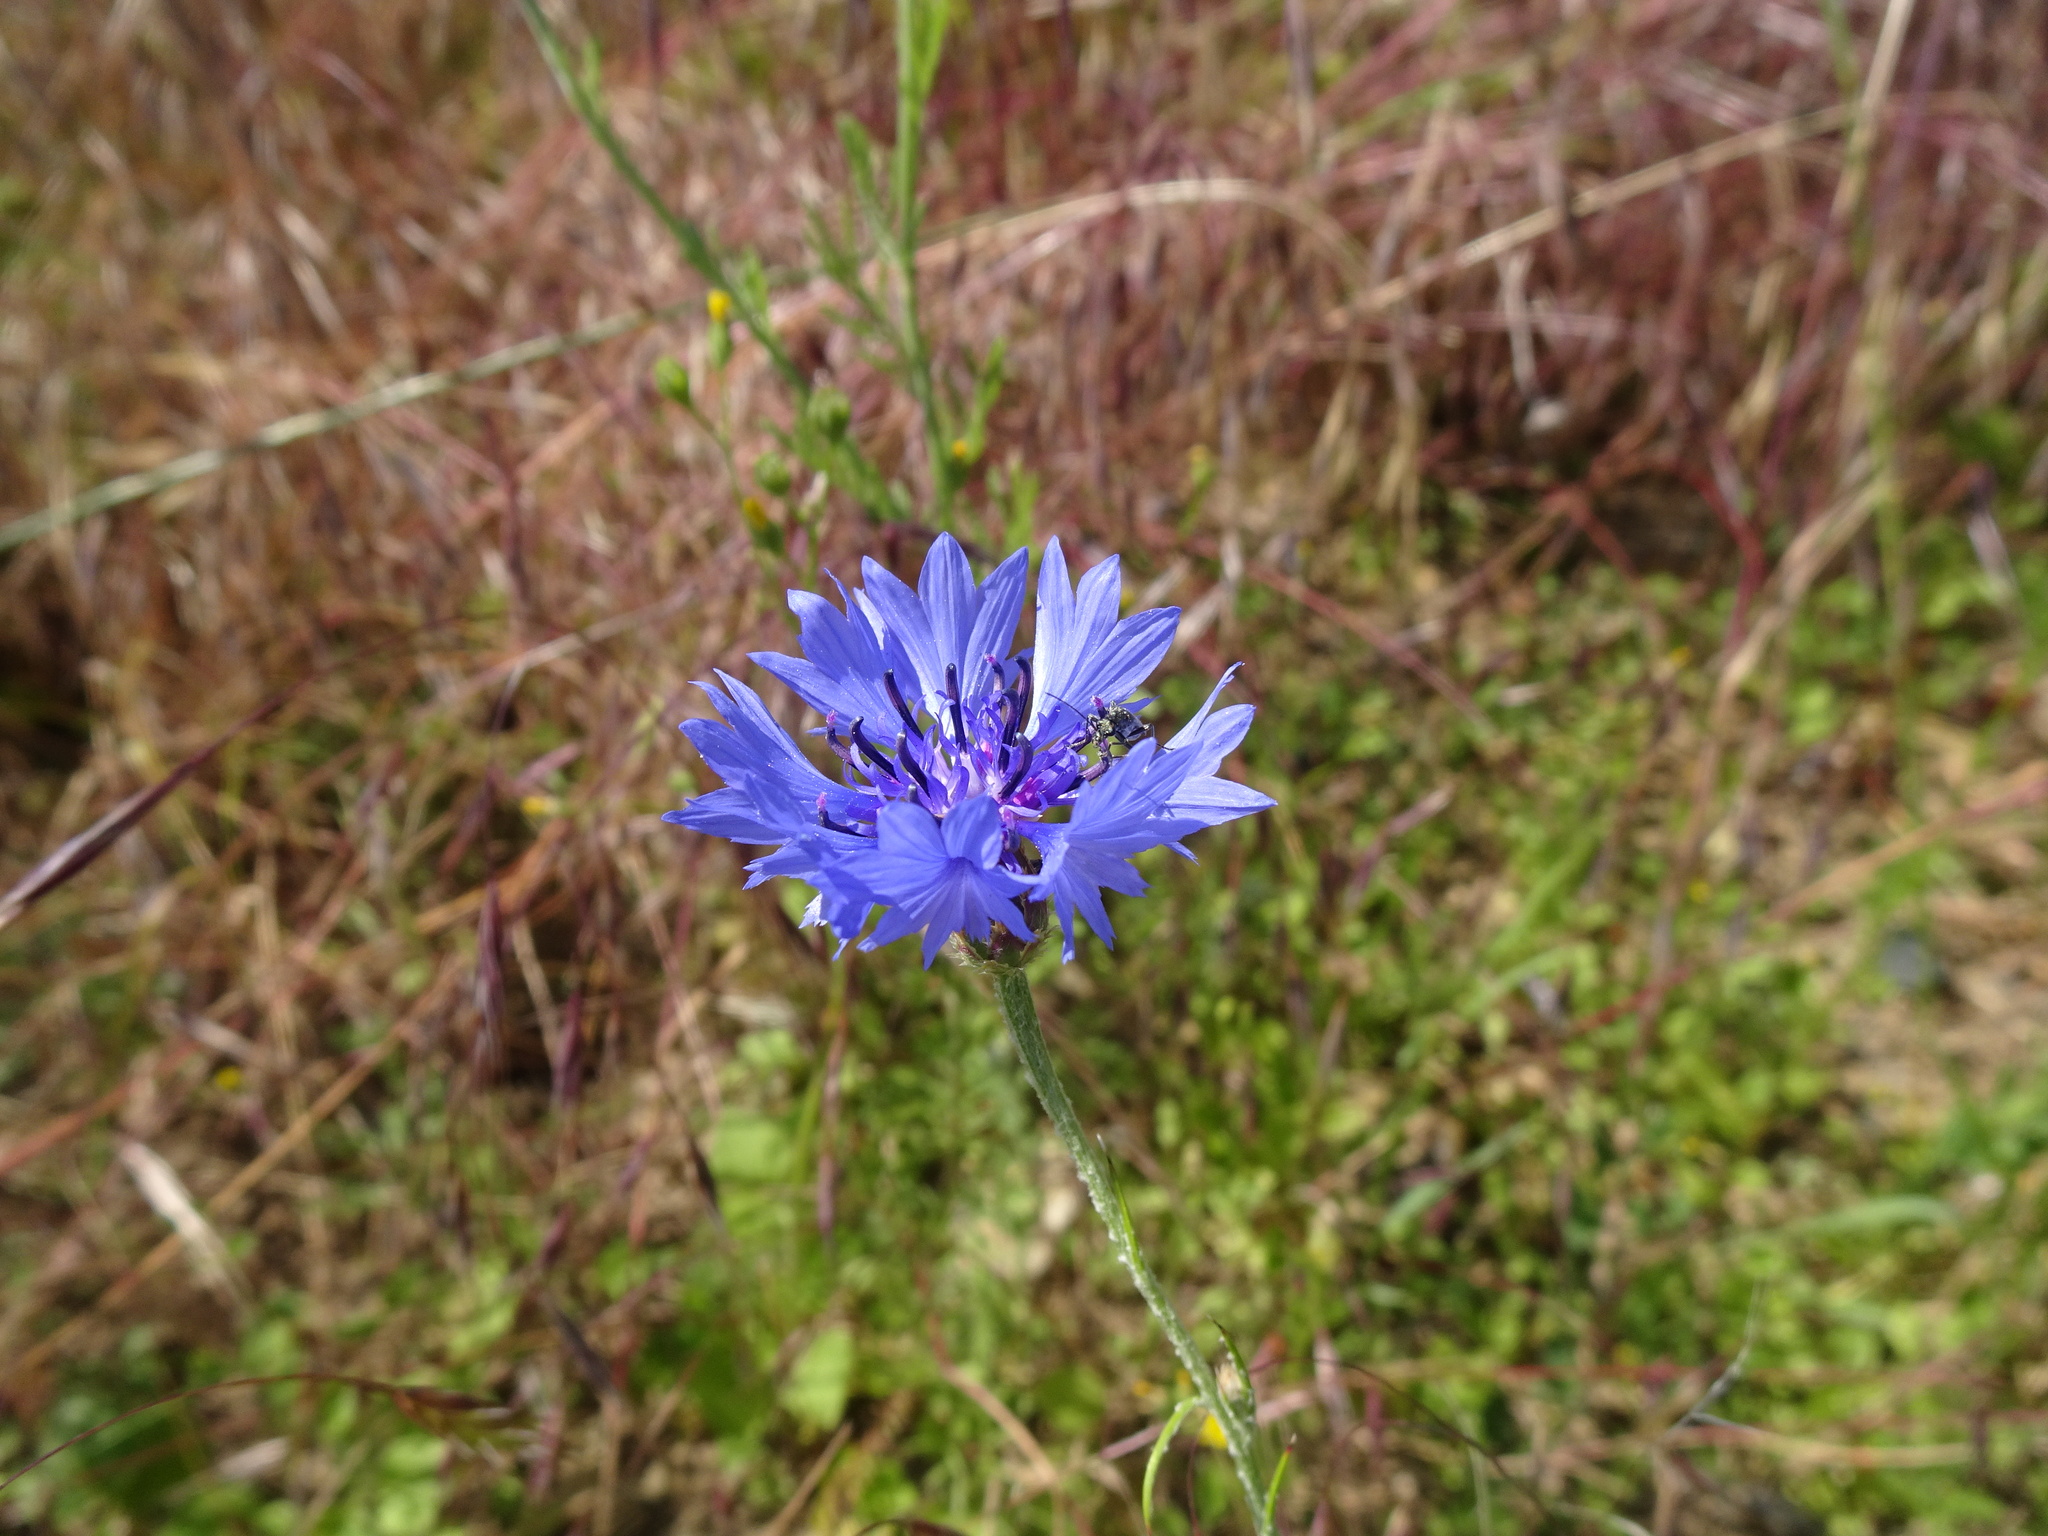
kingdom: Plantae
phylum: Tracheophyta
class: Magnoliopsida
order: Asterales
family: Asteraceae
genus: Centaurea
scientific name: Centaurea cyanus
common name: Cornflower
